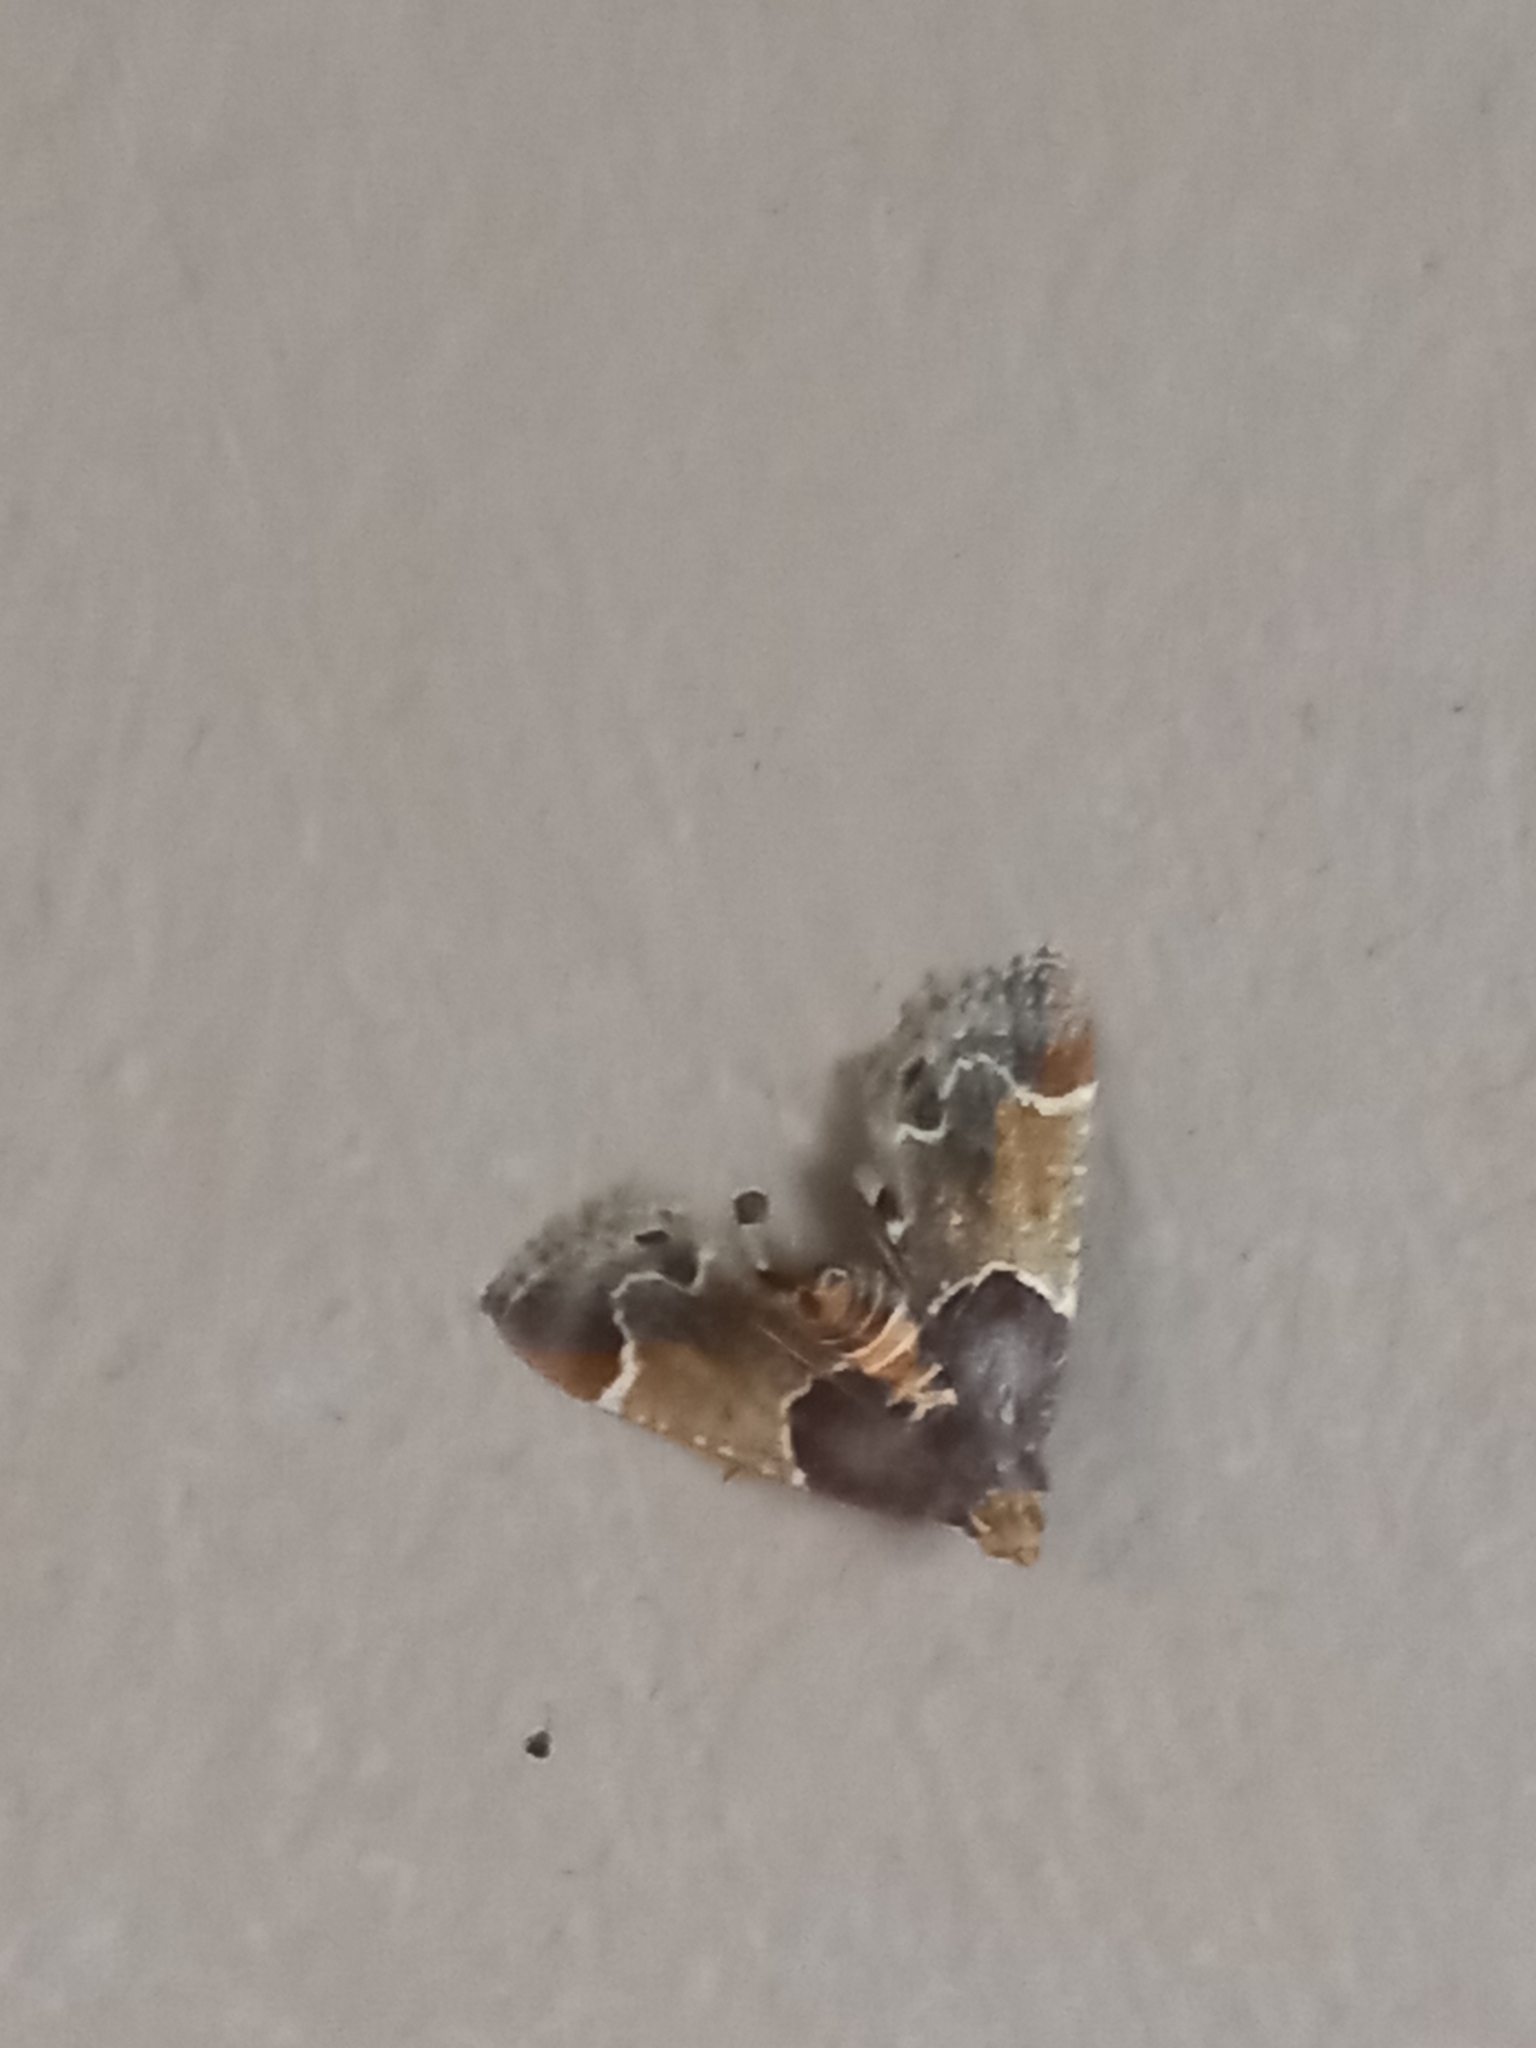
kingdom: Animalia
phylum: Arthropoda
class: Insecta
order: Lepidoptera
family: Pyralidae
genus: Pyralis
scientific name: Pyralis farinalis
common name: Meal moth
